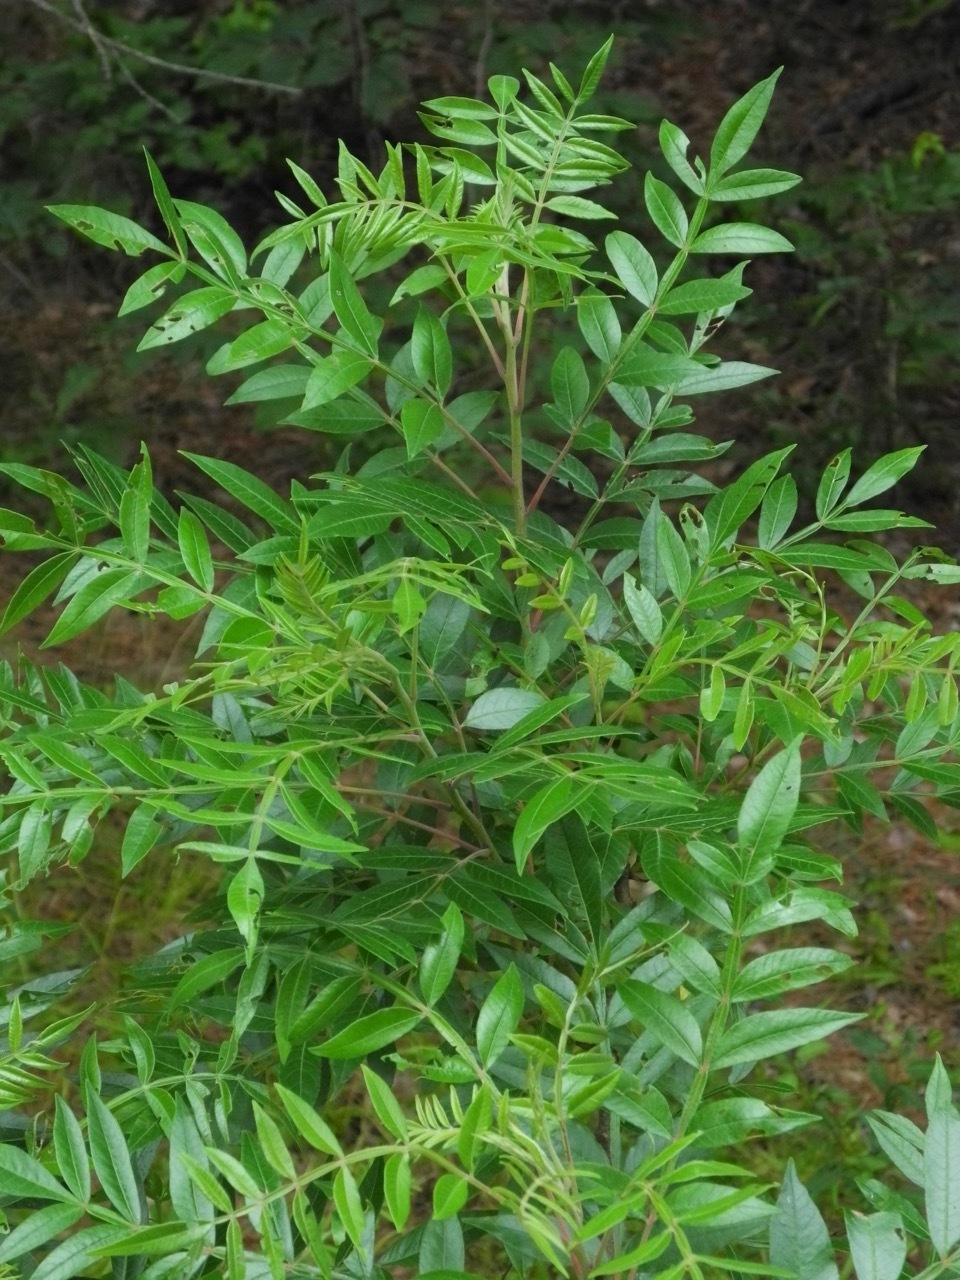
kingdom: Plantae
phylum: Tracheophyta
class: Magnoliopsida
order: Sapindales
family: Anacardiaceae
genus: Rhus
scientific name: Rhus copallina
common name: Shining sumac
